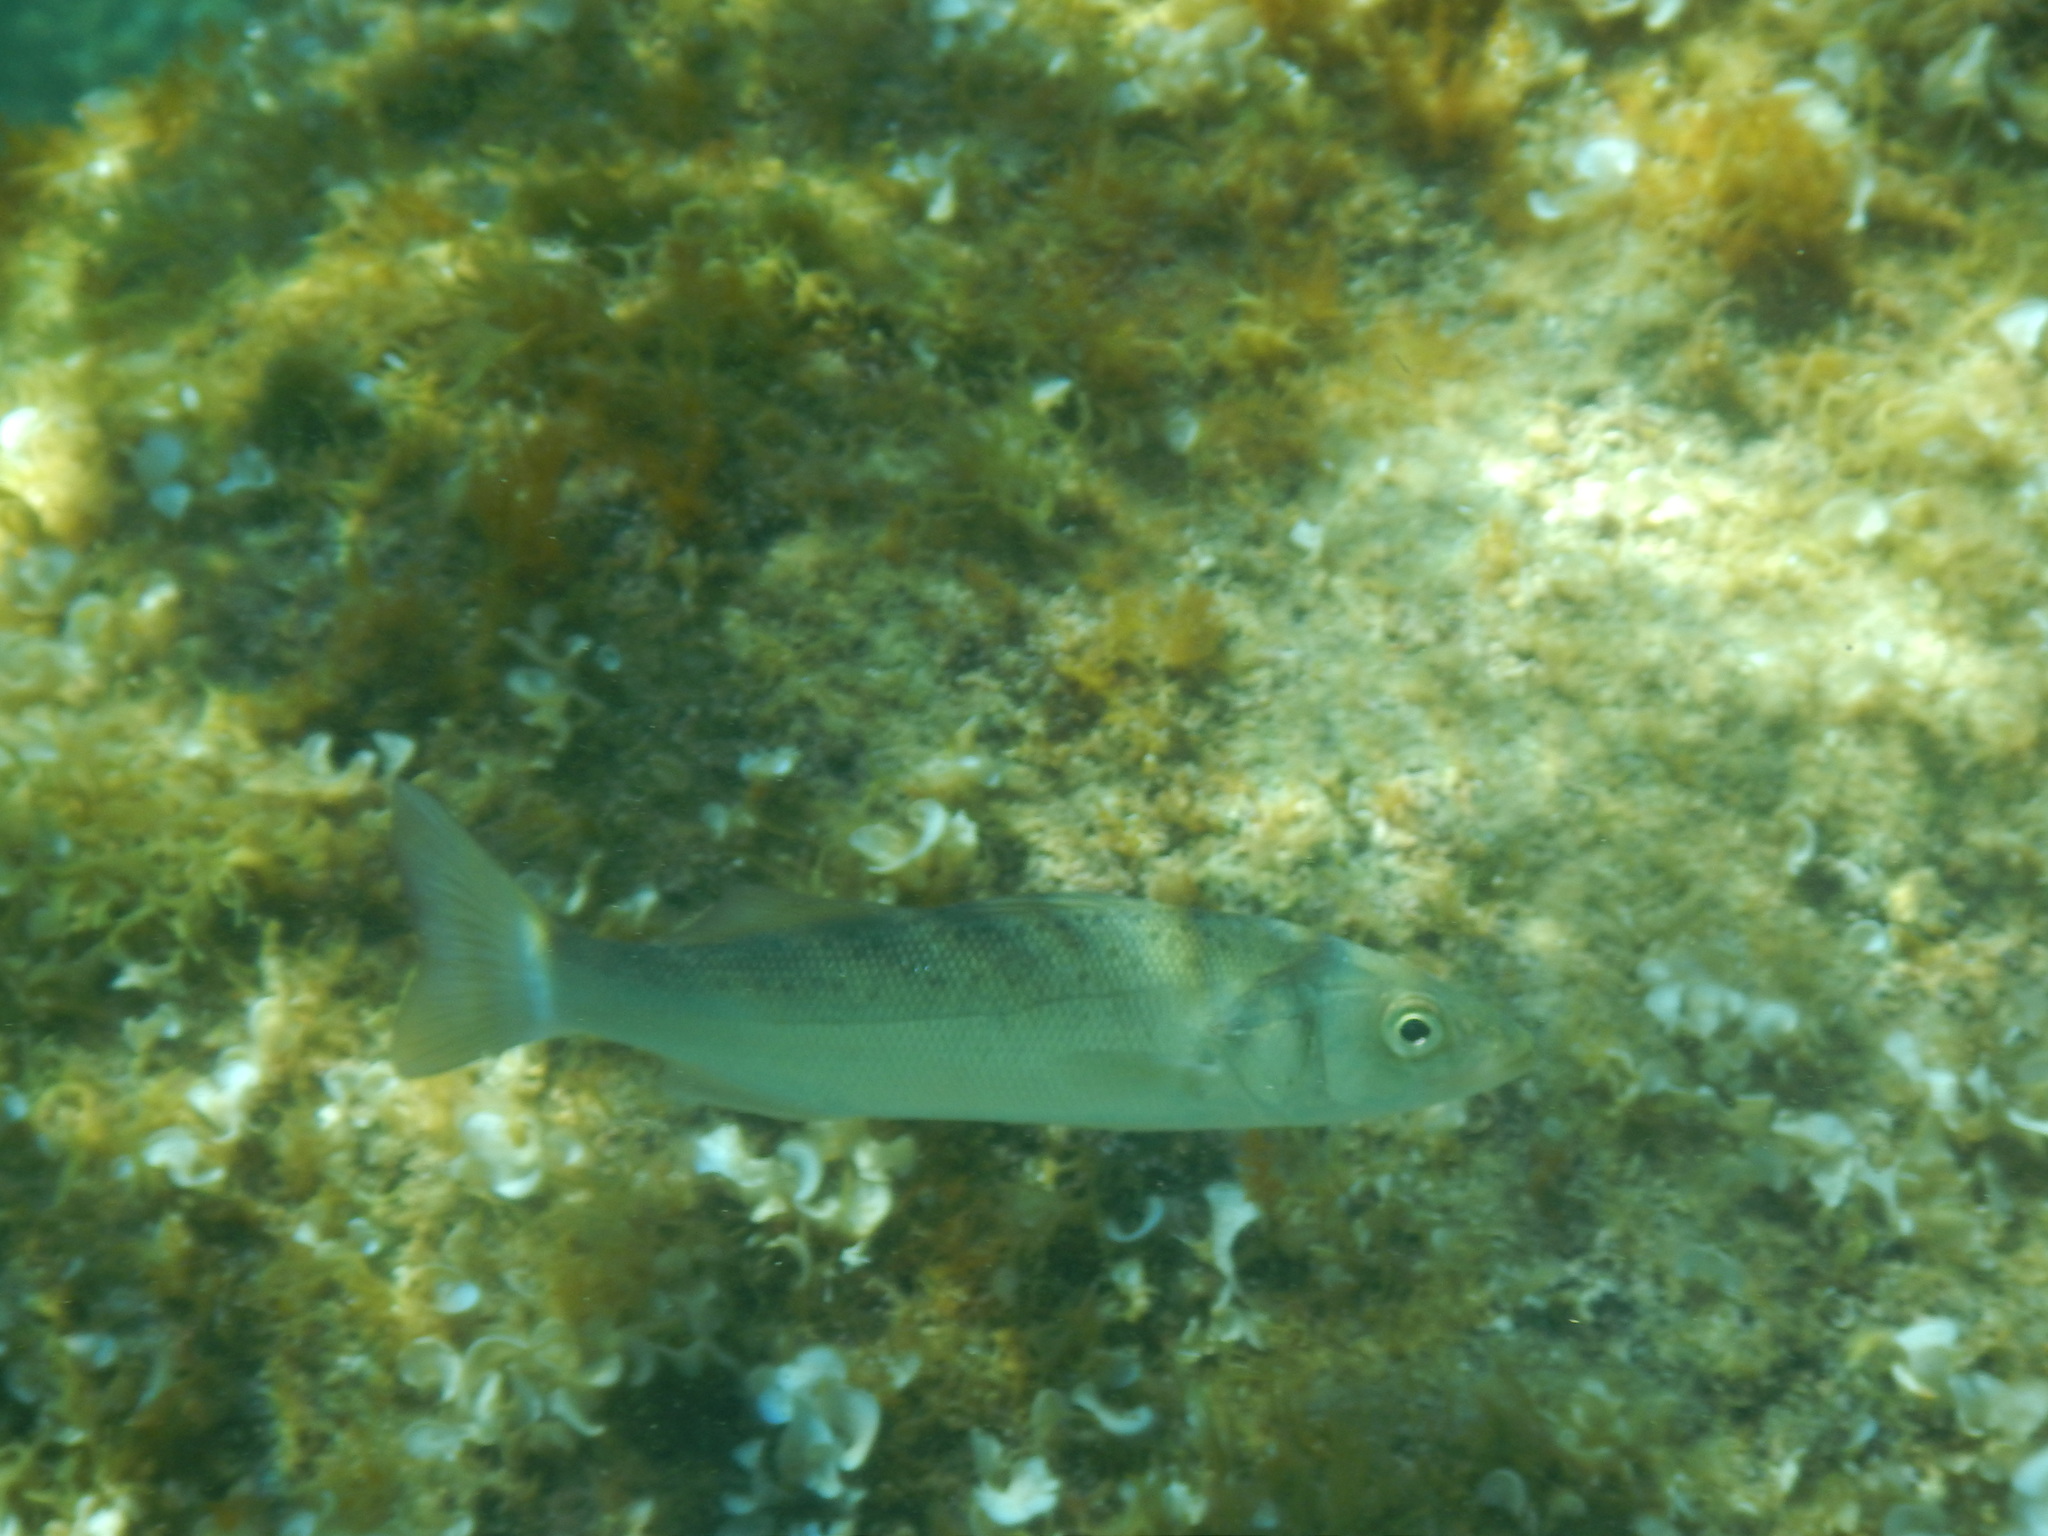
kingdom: Animalia
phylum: Chordata
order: Perciformes
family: Moronidae
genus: Dicentrarchus
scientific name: Dicentrarchus labrax
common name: European seabass
